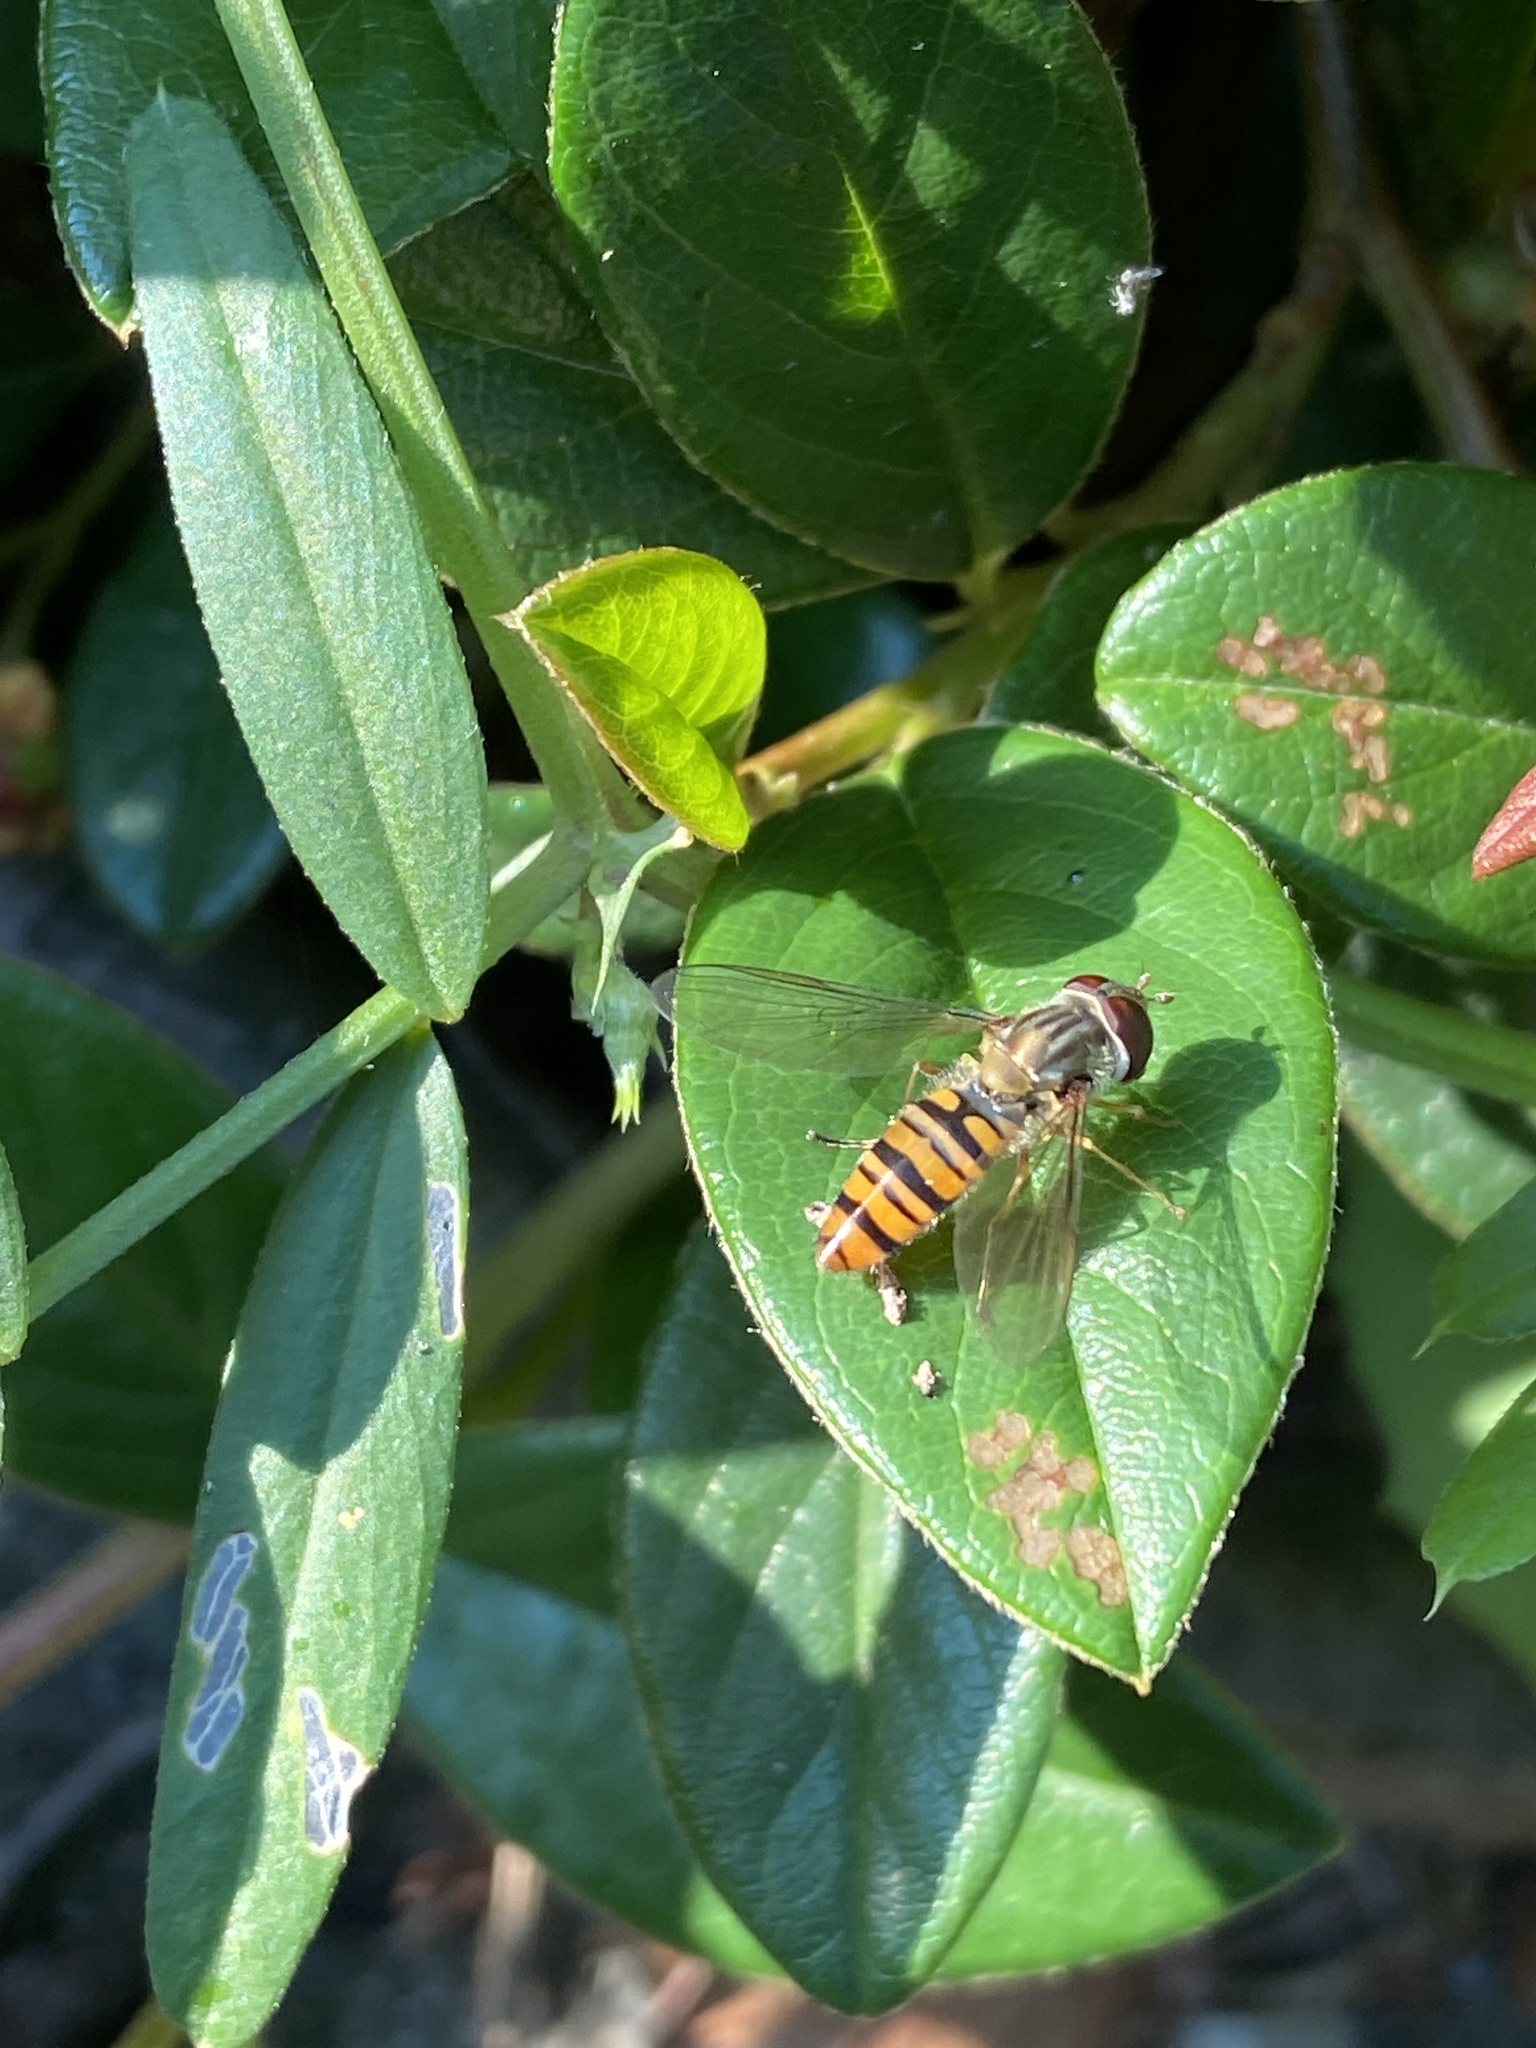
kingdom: Animalia
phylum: Arthropoda
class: Insecta
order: Diptera
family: Syrphidae
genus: Episyrphus
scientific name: Episyrphus balteatus
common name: Marmalade hoverfly
